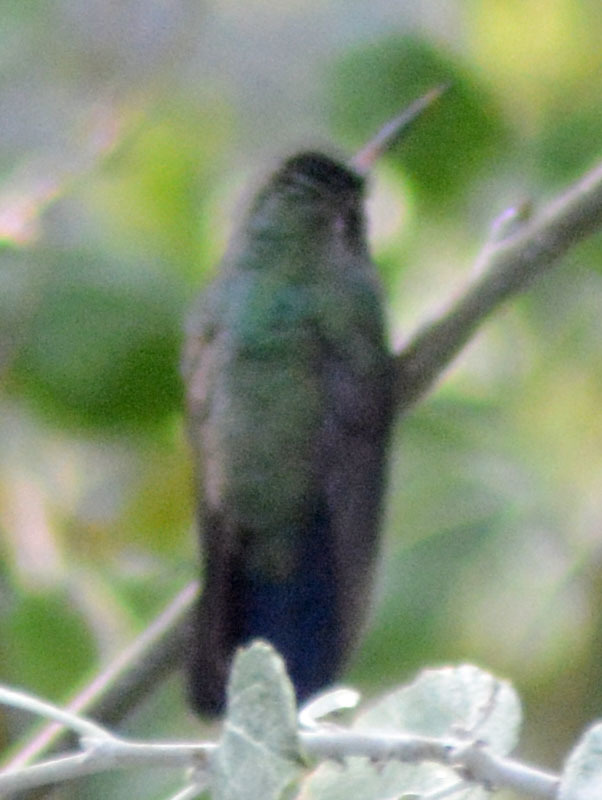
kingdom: Animalia
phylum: Chordata
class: Aves
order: Apodiformes
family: Trochilidae
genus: Cynanthus
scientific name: Cynanthus latirostris
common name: Broad-billed hummingbird
